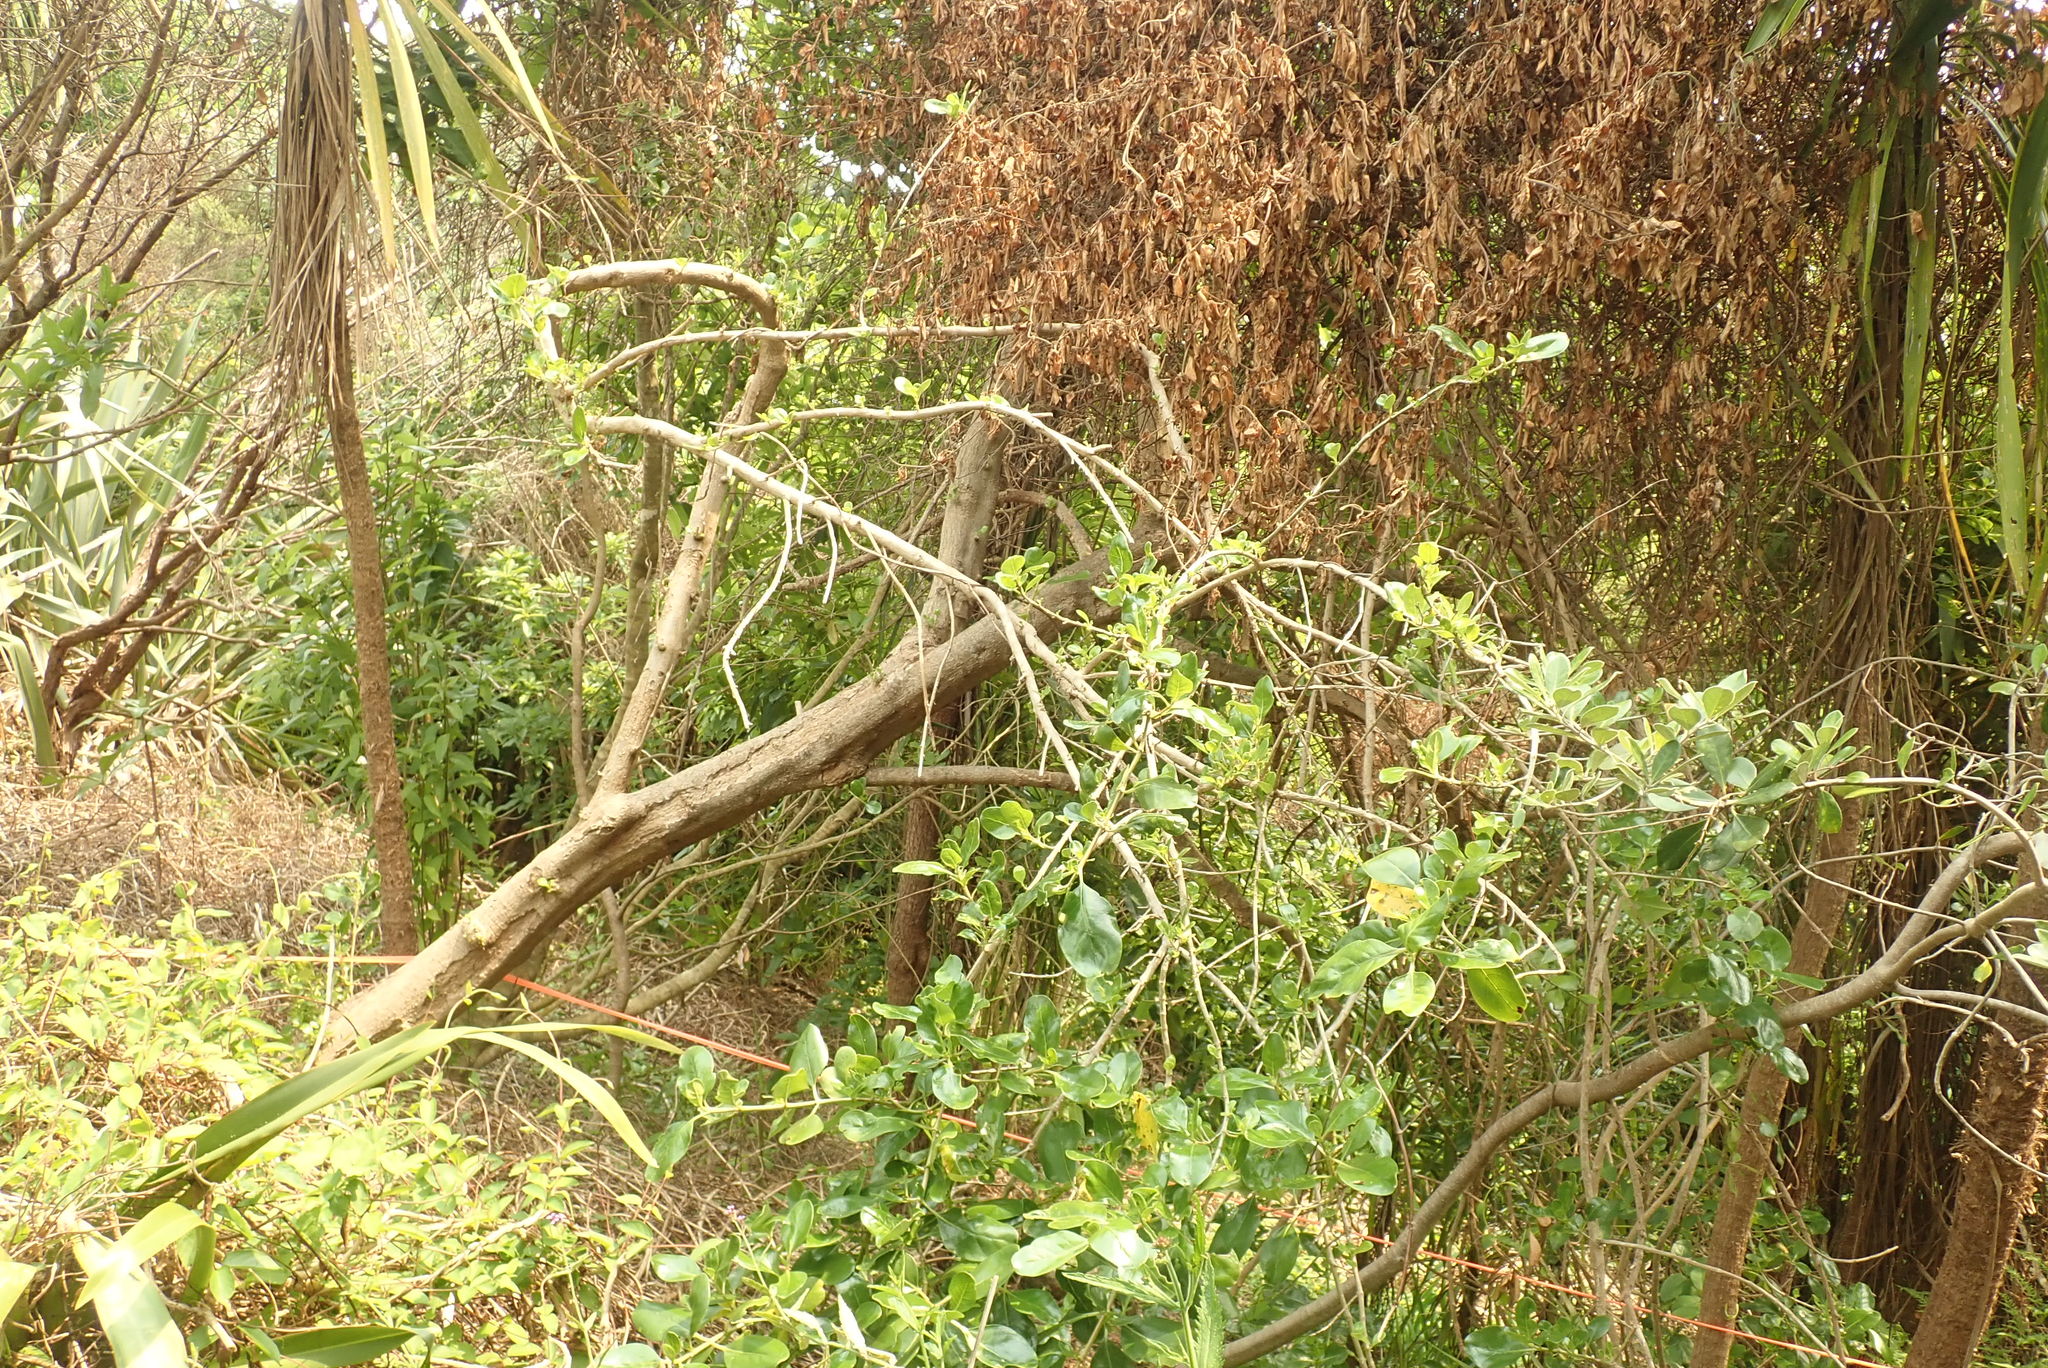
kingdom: Plantae
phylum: Tracheophyta
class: Magnoliopsida
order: Gentianales
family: Rubiaceae
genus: Coprosma
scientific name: Coprosma repens
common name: Tree bedstraw
